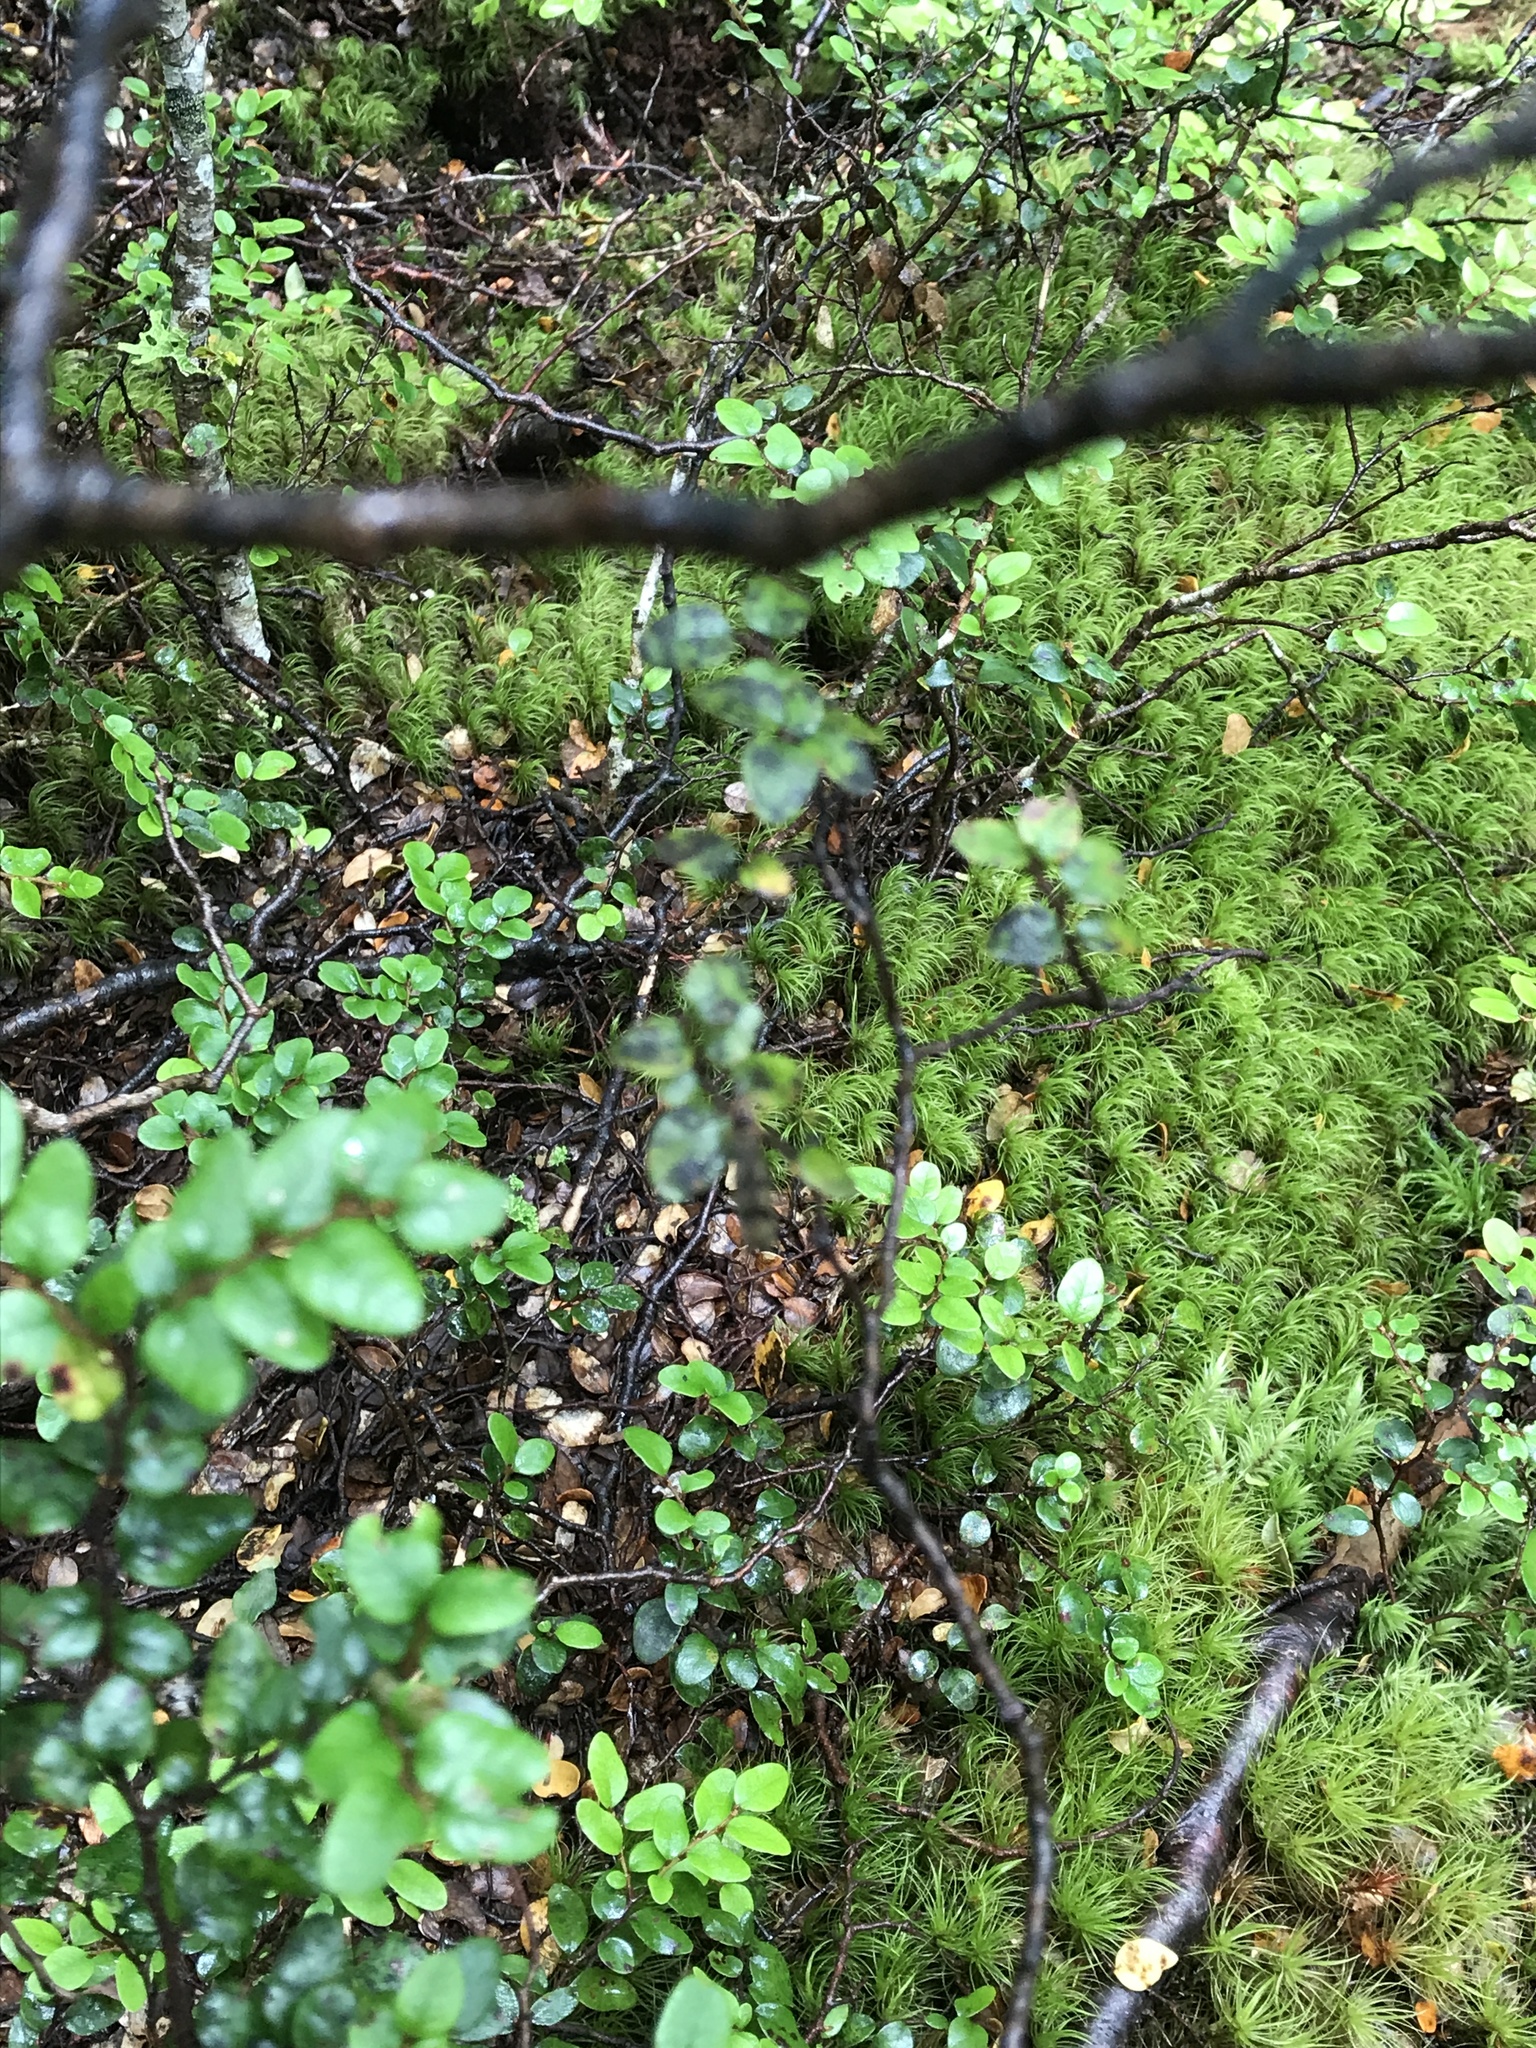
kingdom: Plantae
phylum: Tracheophyta
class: Magnoliopsida
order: Fagales
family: Nothofagaceae
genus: Nothofagus
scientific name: Nothofagus cliffortioides
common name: Mountain beech
